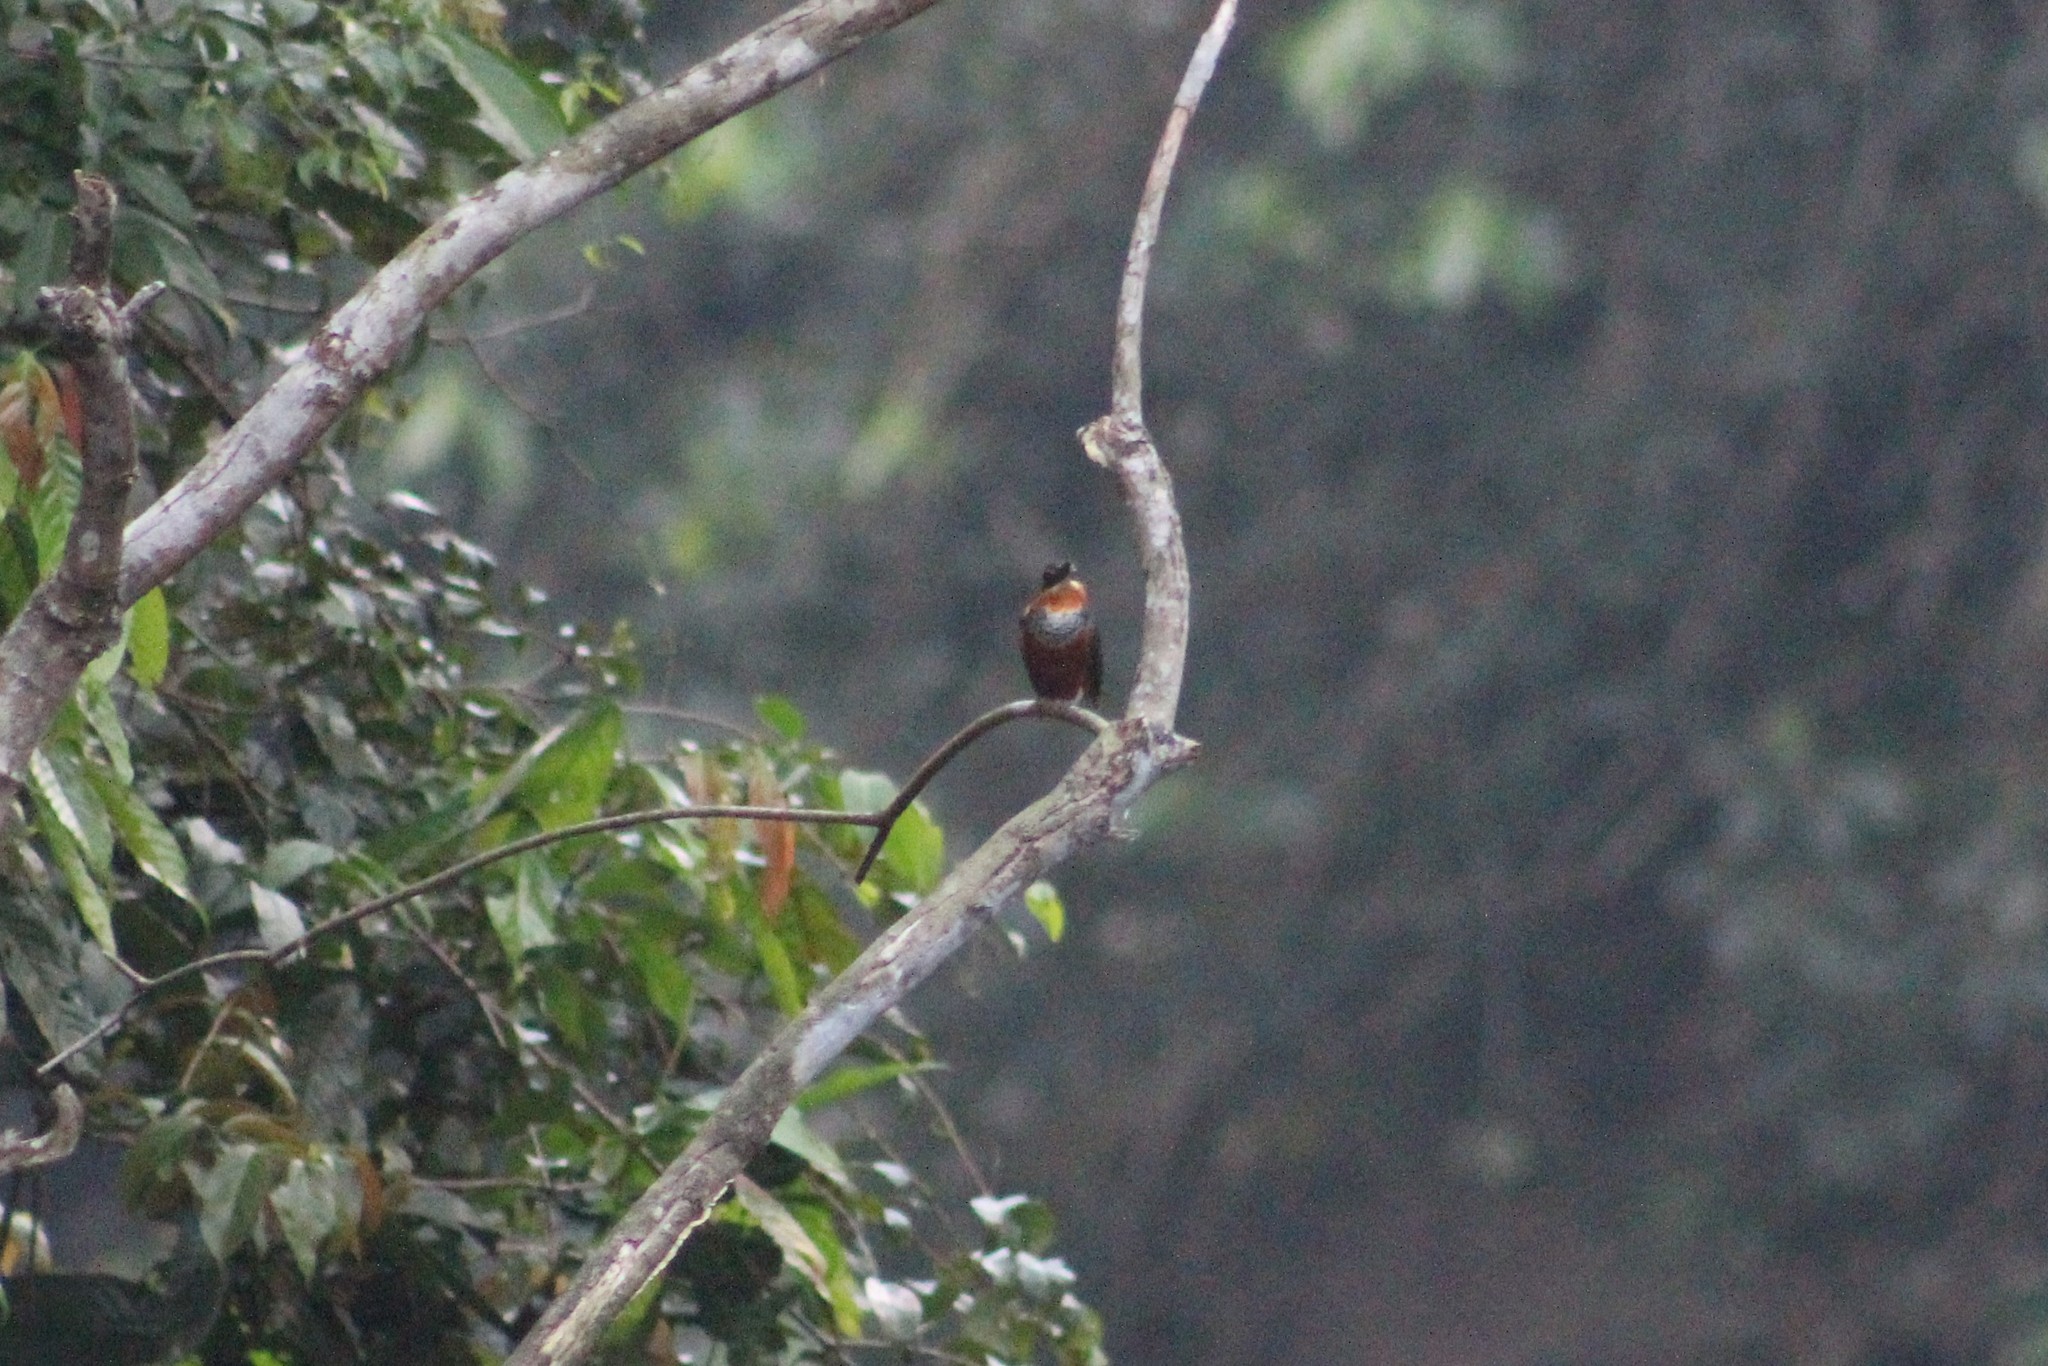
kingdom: Animalia
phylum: Chordata
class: Aves
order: Coraciiformes
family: Alcedinidae
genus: Chloroceryle
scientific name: Chloroceryle inda
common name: Green-and-rufous kingfisher
